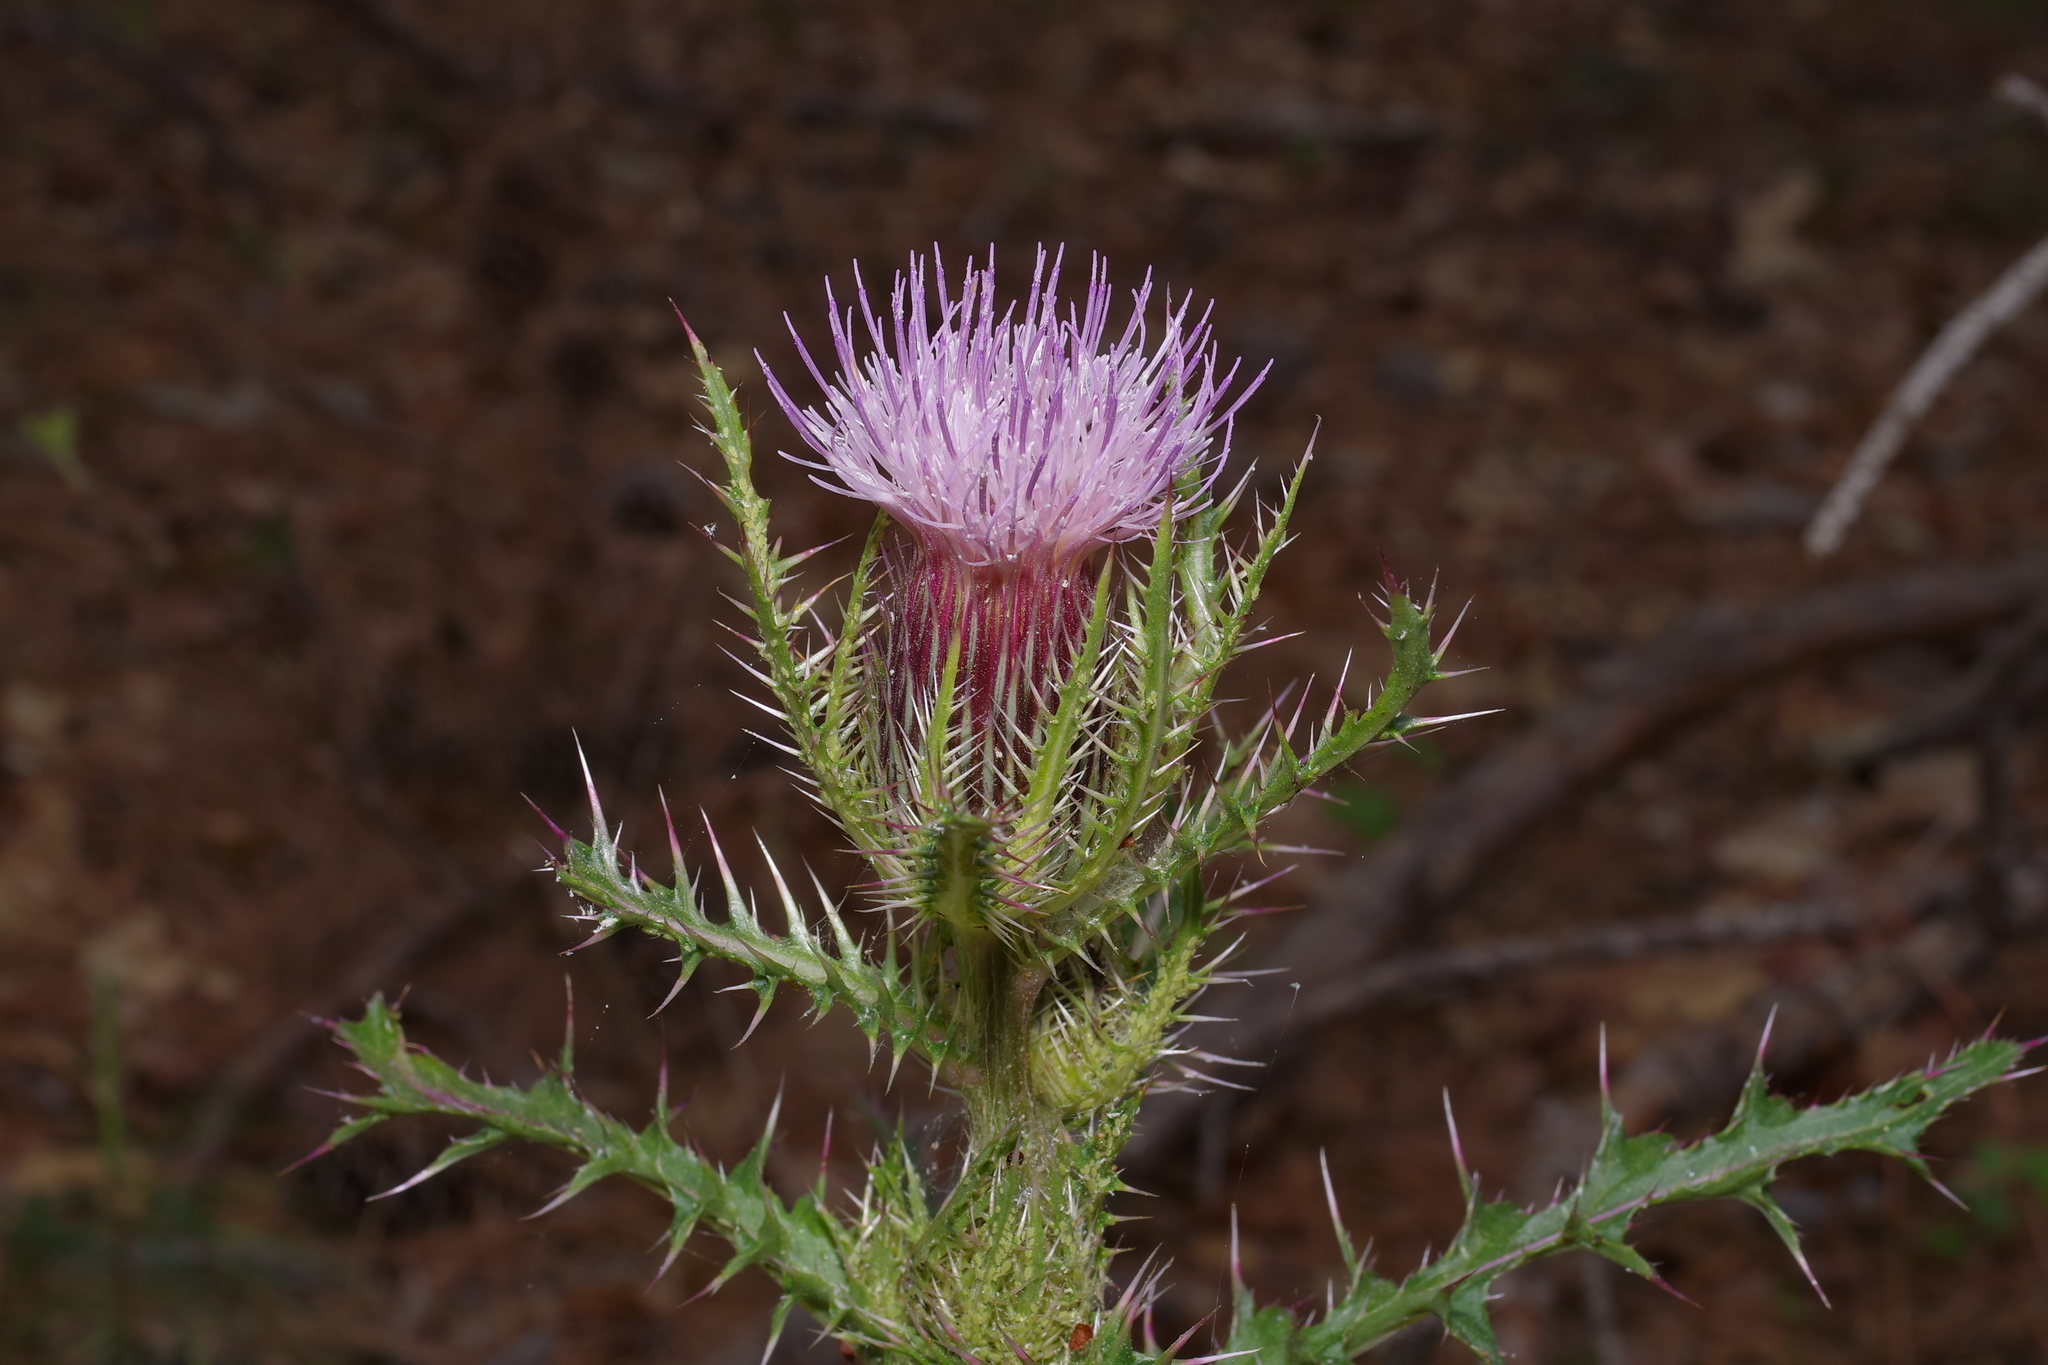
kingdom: Plantae
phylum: Tracheophyta
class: Magnoliopsida
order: Asterales
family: Asteraceae
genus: Cirsium
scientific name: Cirsium horridulum
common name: Bristly thistle
